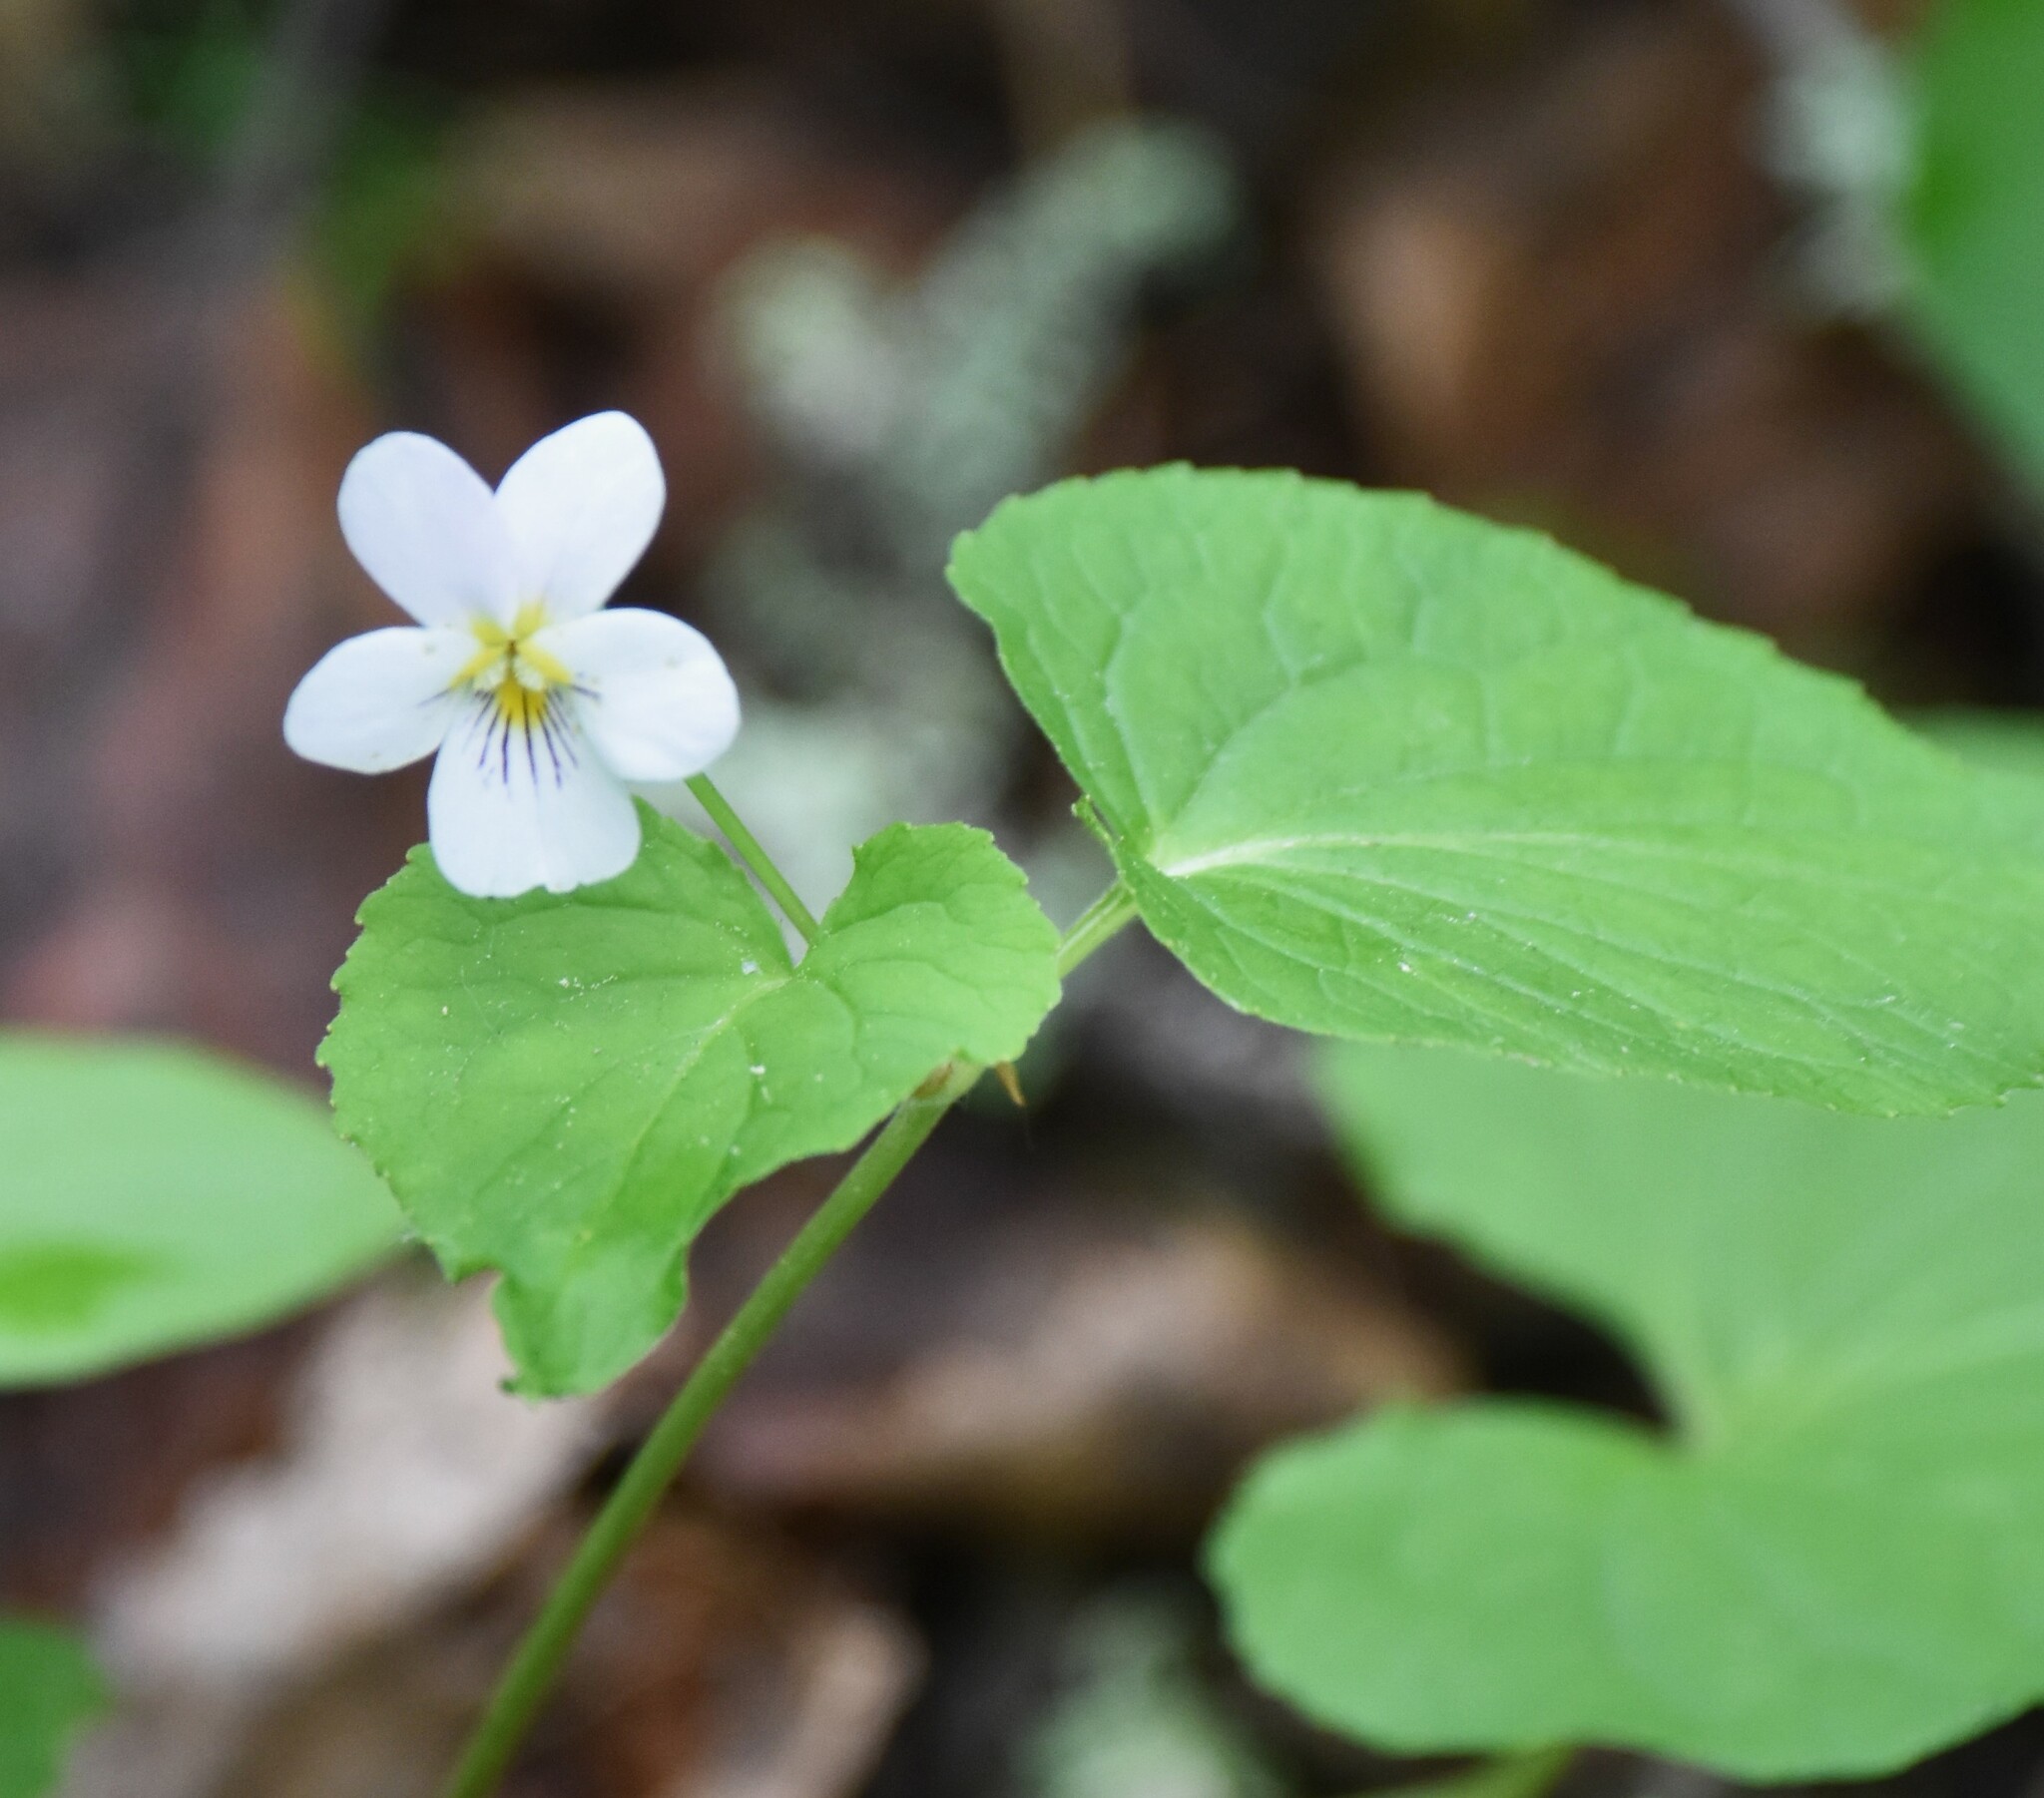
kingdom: Plantae
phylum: Tracheophyta
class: Magnoliopsida
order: Malpighiales
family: Violaceae
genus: Viola
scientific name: Viola canadensis
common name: Canada violet
